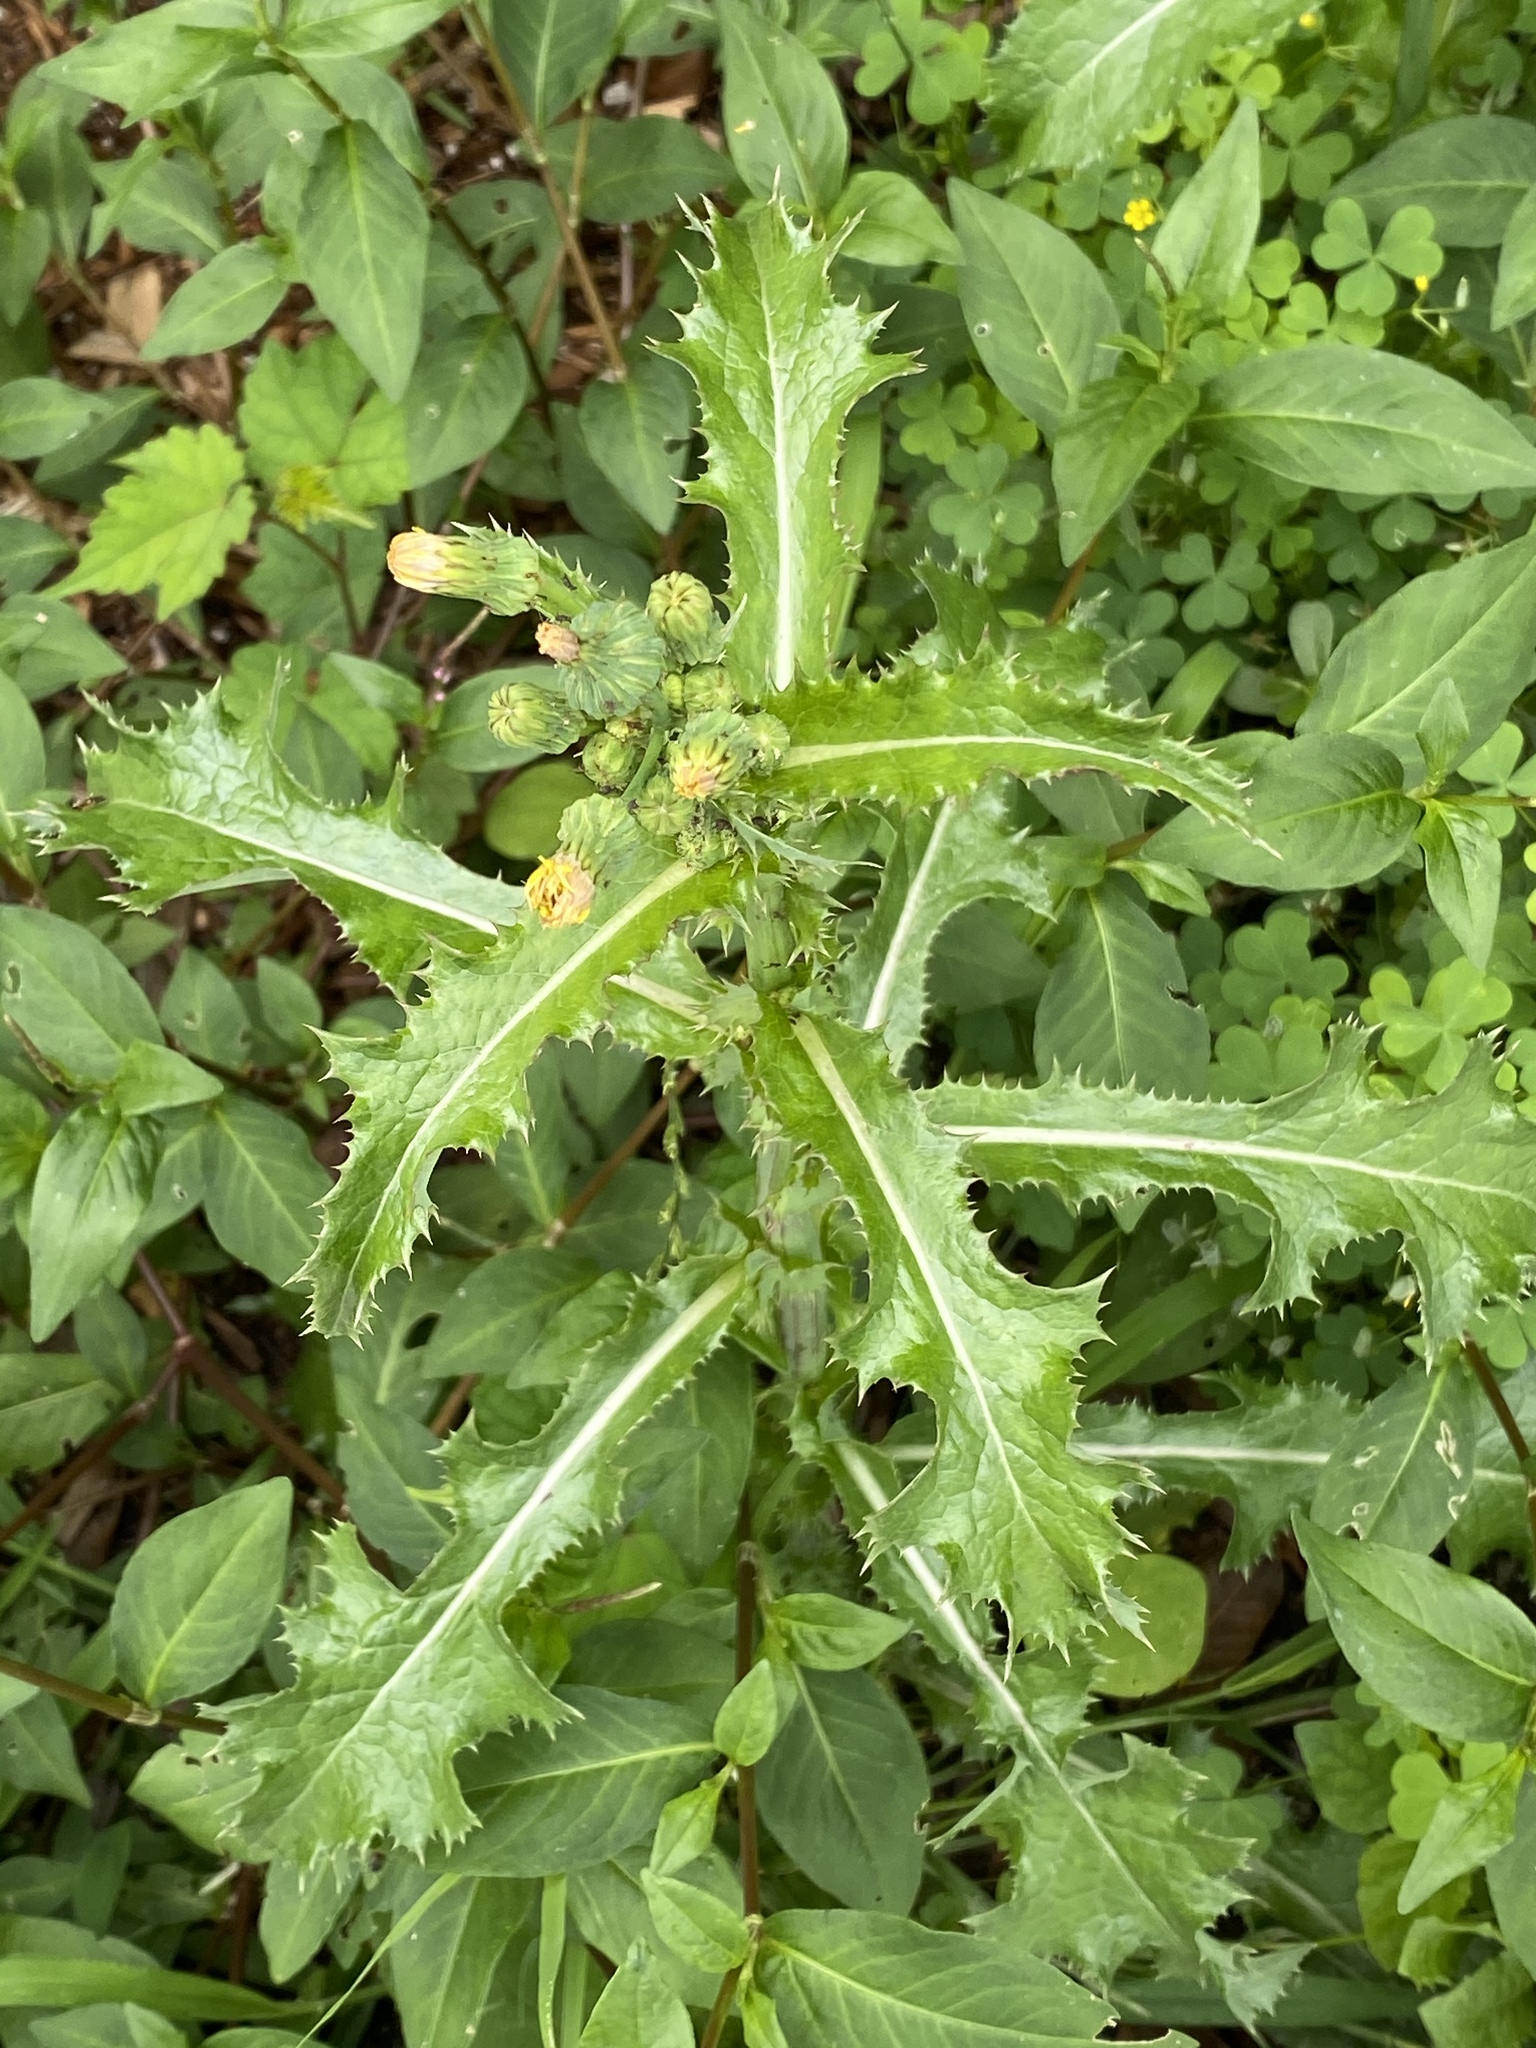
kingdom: Plantae
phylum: Tracheophyta
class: Magnoliopsida
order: Asterales
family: Asteraceae
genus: Sonchus
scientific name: Sonchus asper
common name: Prickly sow-thistle
